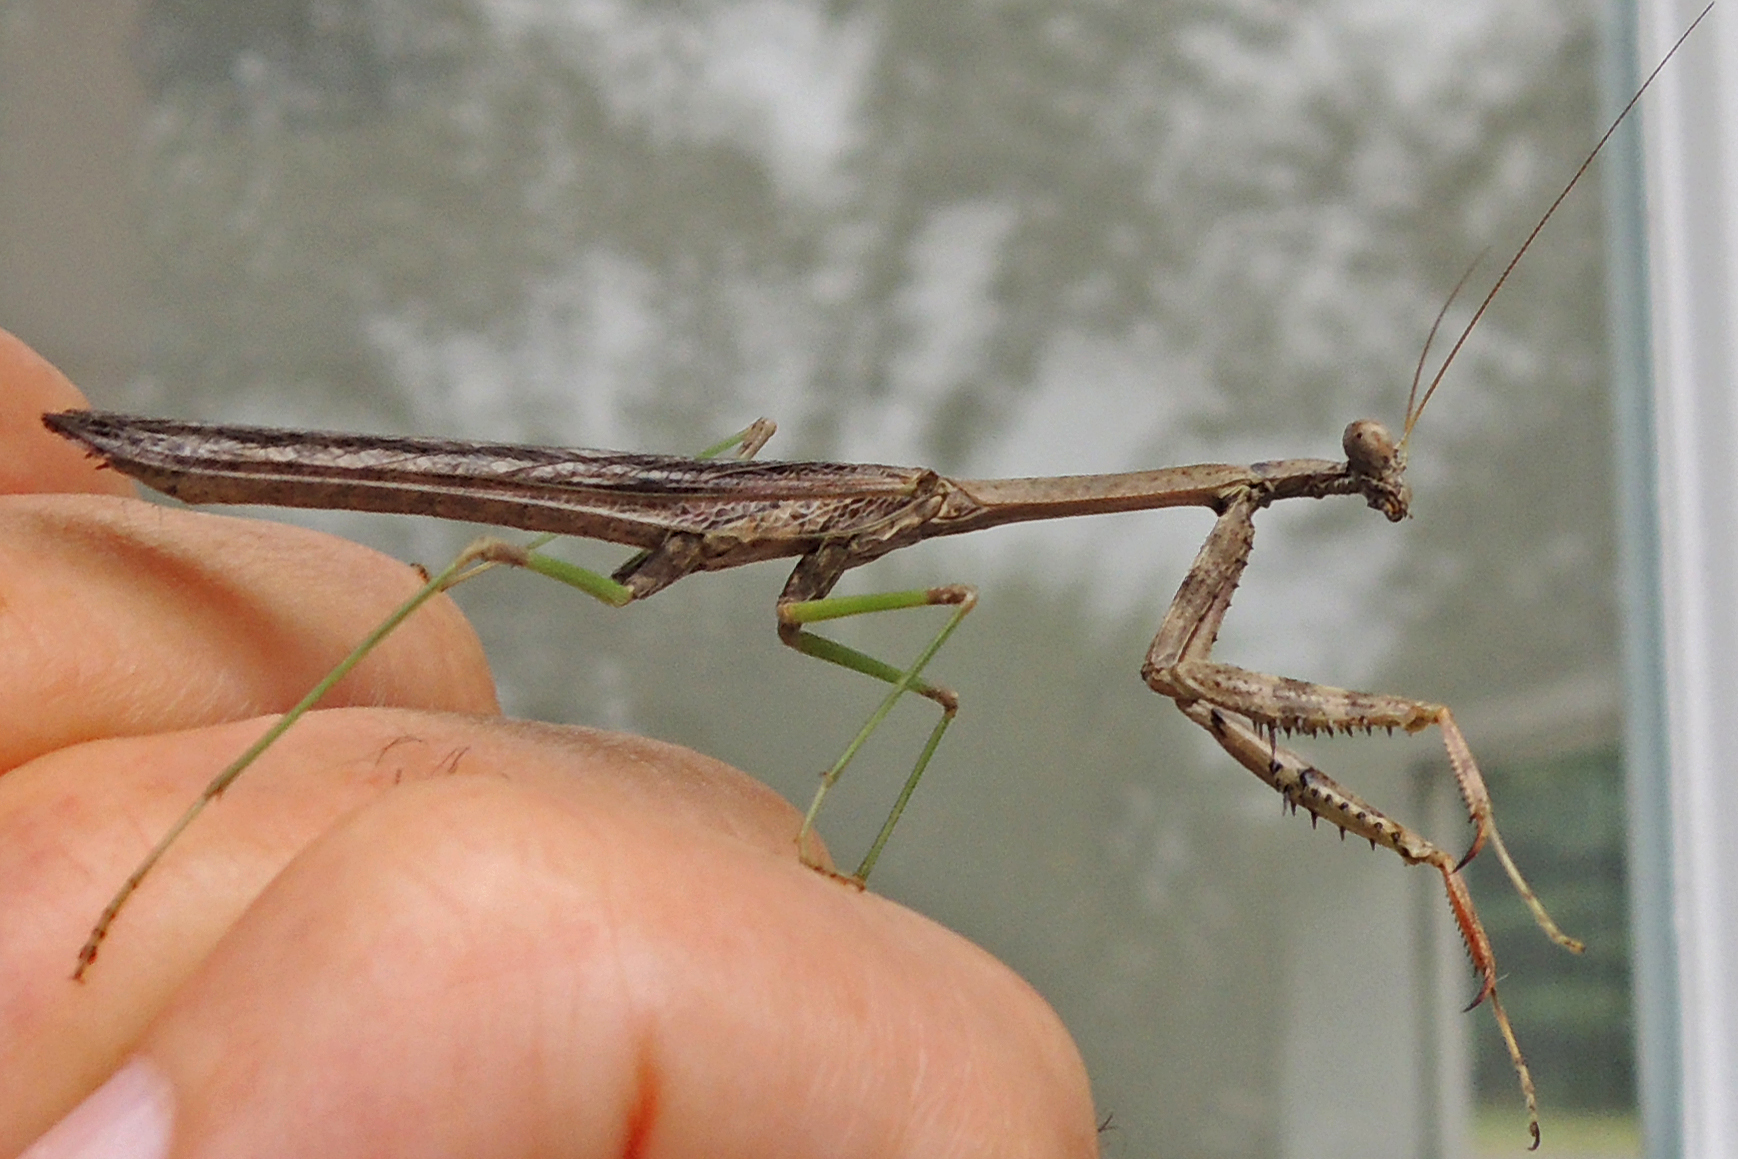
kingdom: Animalia
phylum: Arthropoda
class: Insecta
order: Mantodea
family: Mantidae
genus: Stagmomantis
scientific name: Stagmomantis carolina
